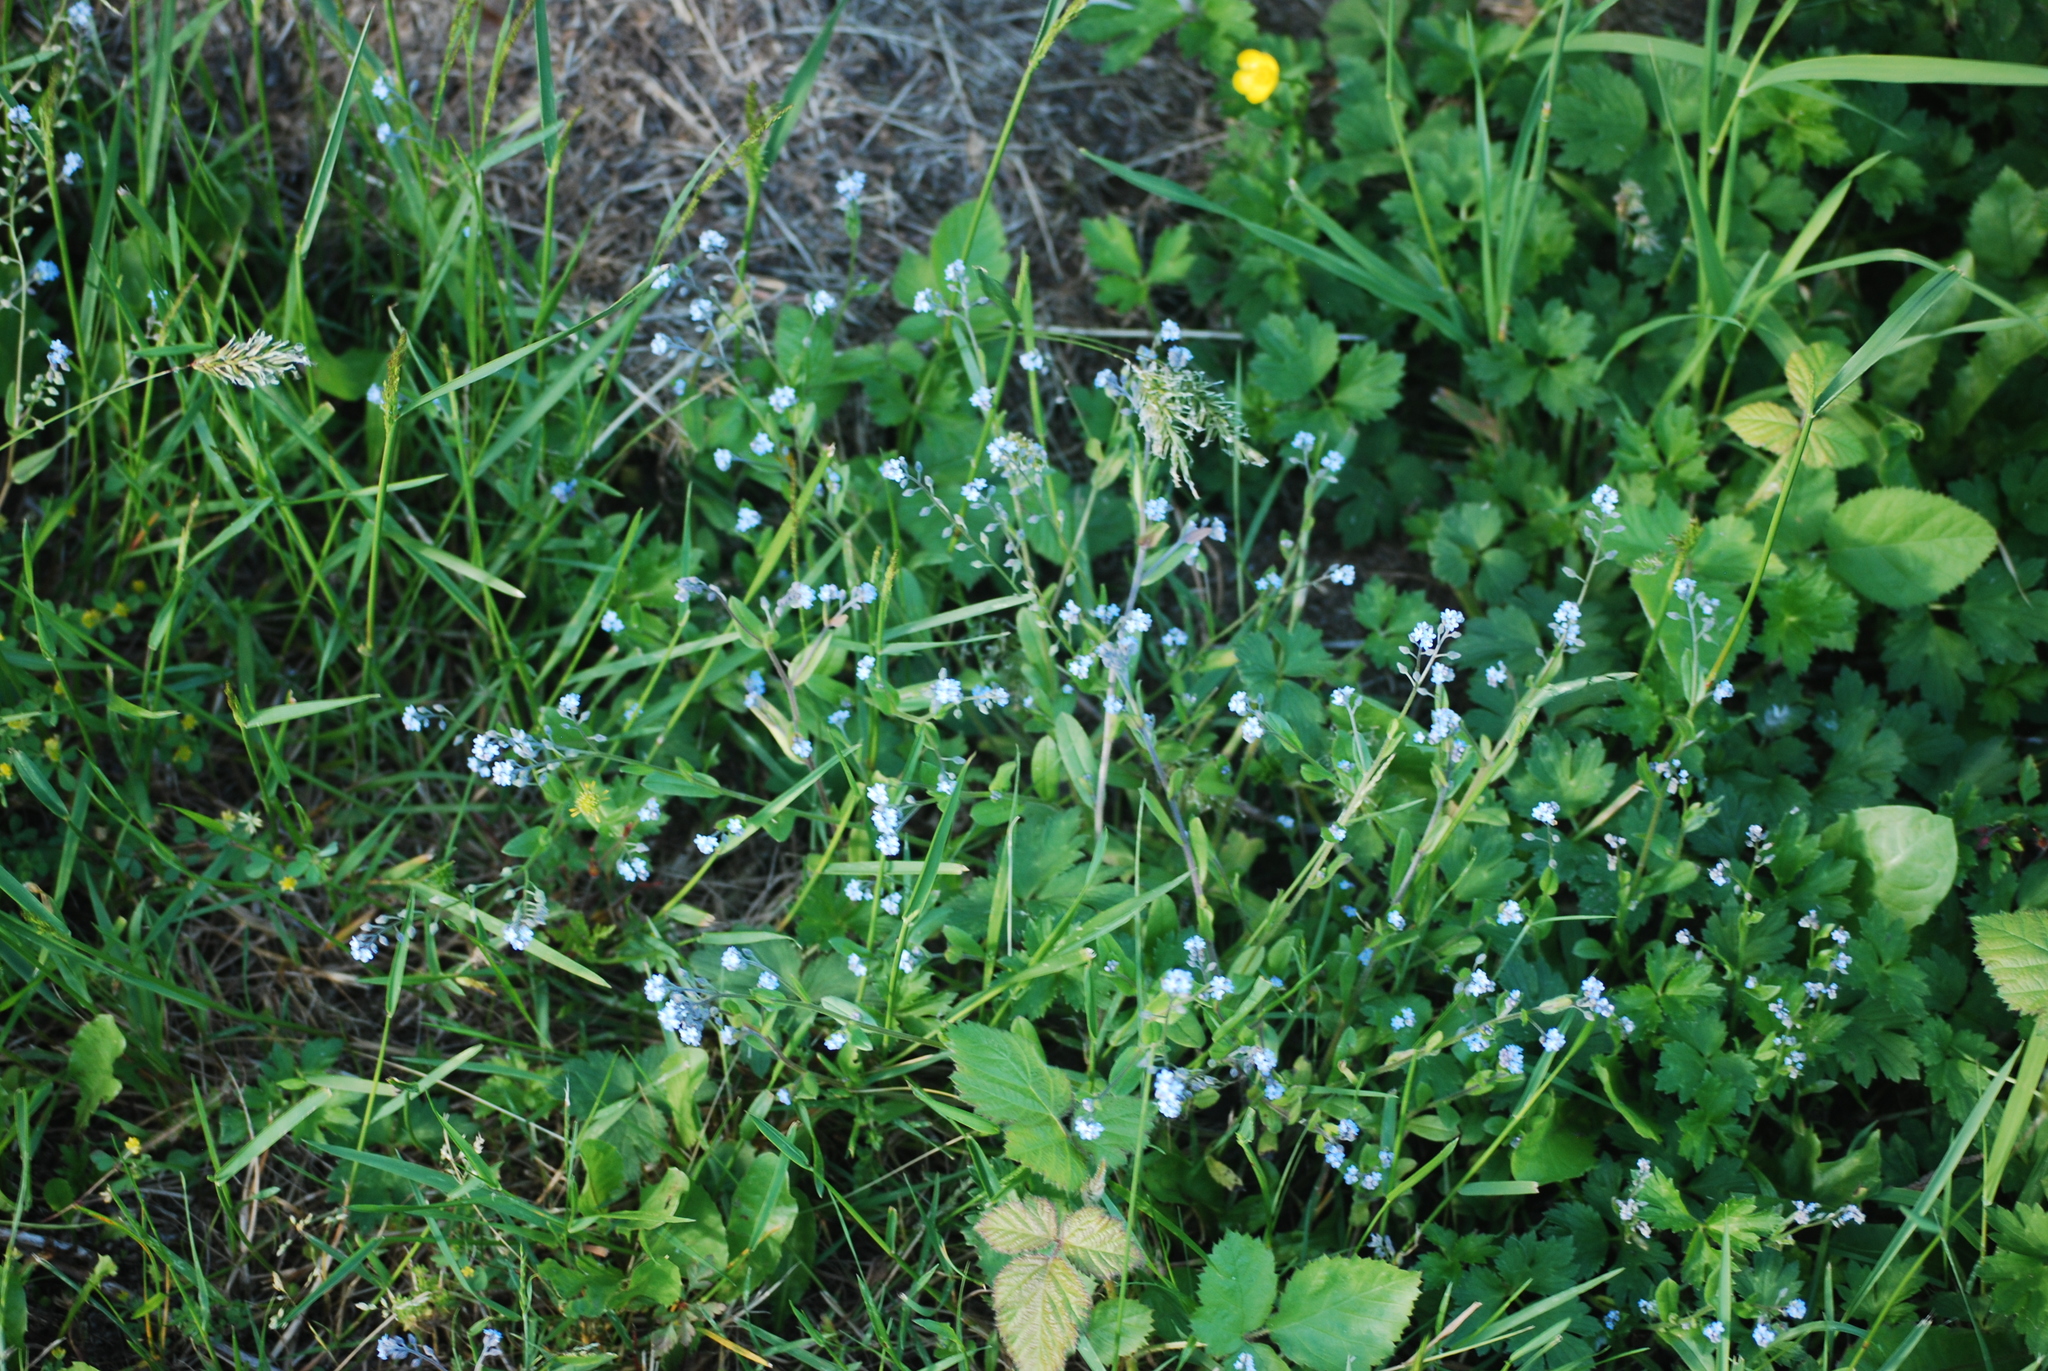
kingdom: Plantae
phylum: Tracheophyta
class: Magnoliopsida
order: Boraginales
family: Boraginaceae
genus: Myosotis
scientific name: Myosotis arvensis
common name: Field forget-me-not
